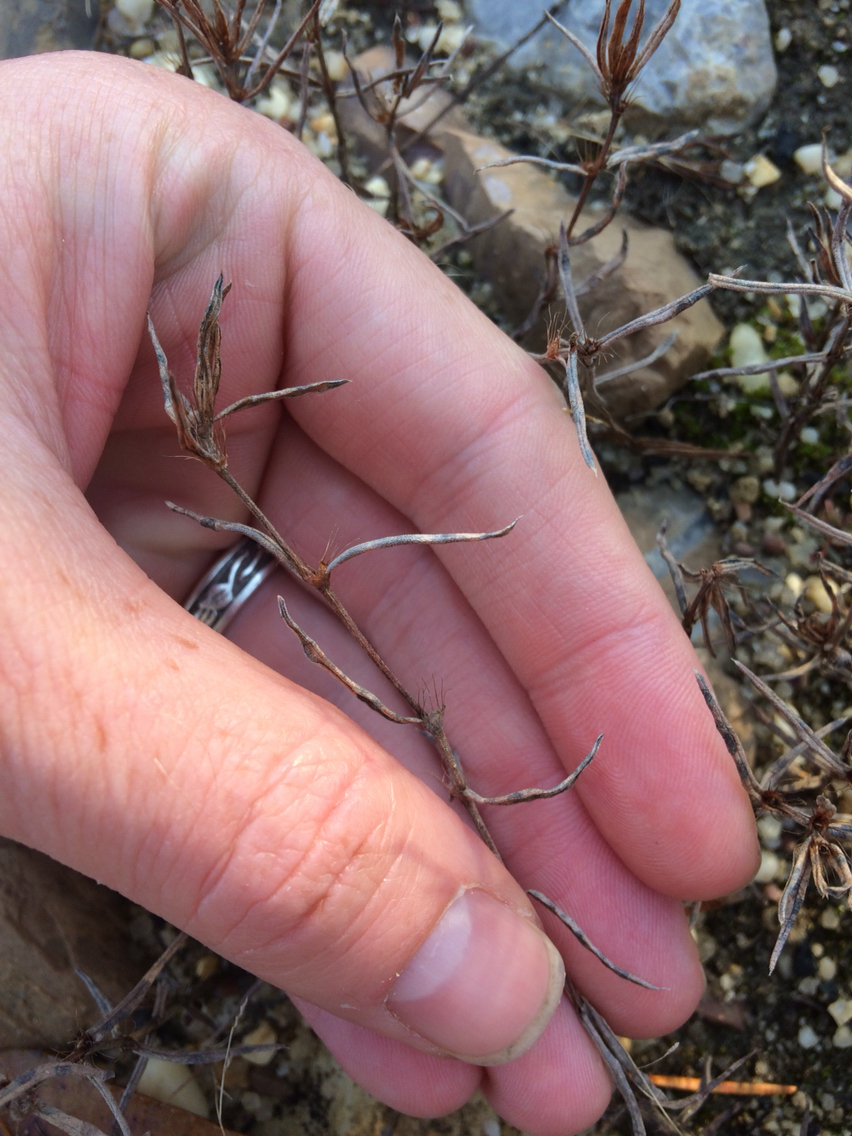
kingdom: Plantae
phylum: Tracheophyta
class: Magnoliopsida
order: Gentianales
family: Rubiaceae
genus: Hexasepalum
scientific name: Hexasepalum teres
